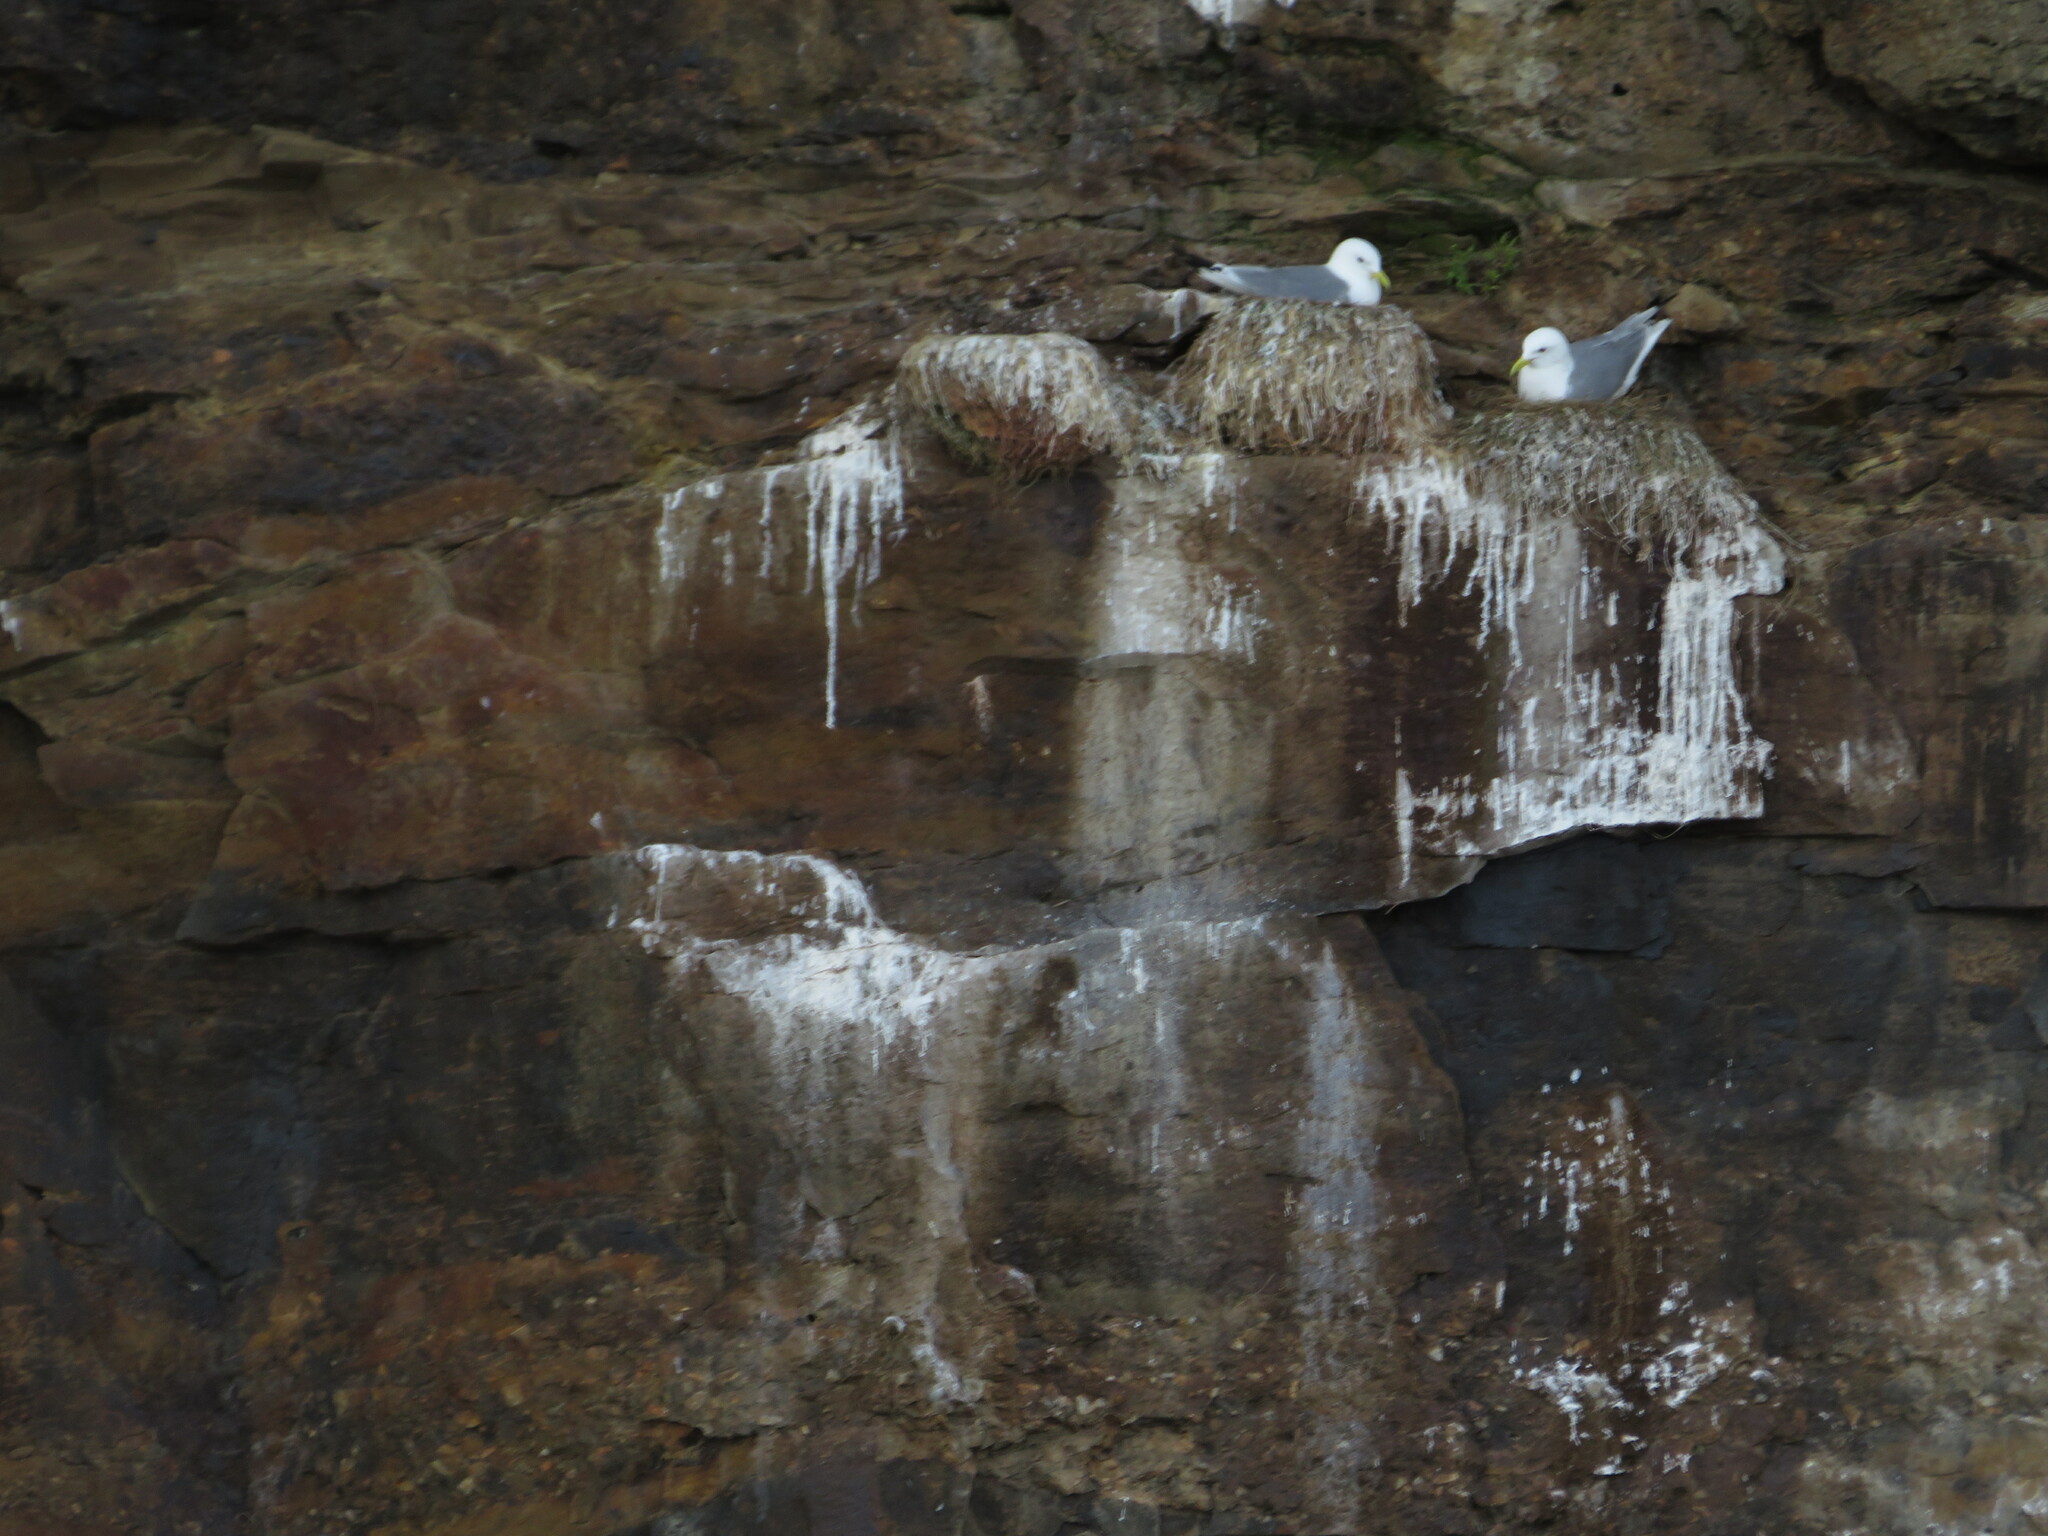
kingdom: Animalia
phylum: Chordata
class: Aves
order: Charadriiformes
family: Laridae
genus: Rissa
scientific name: Rissa tridactyla
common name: Black-legged kittiwake
